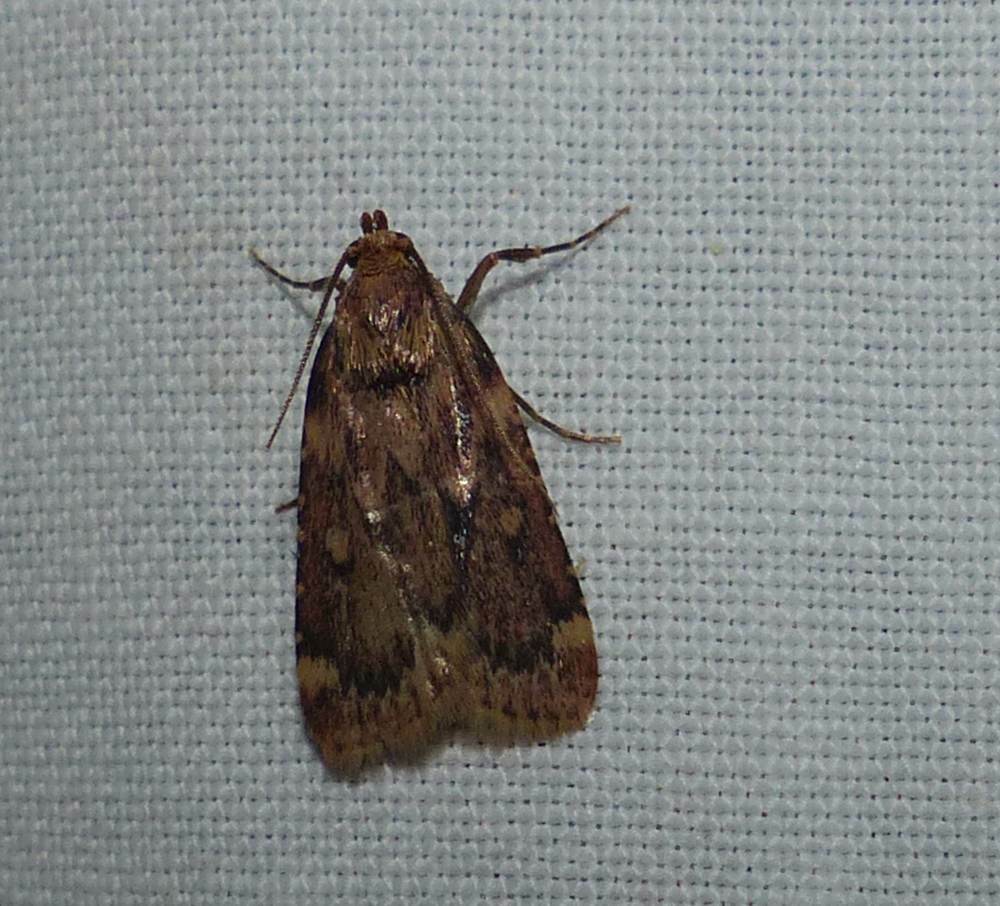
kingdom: Animalia
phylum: Arthropoda
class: Insecta
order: Lepidoptera
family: Pyralidae
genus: Aglossa
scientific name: Aglossa cuprina
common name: Grease moth
